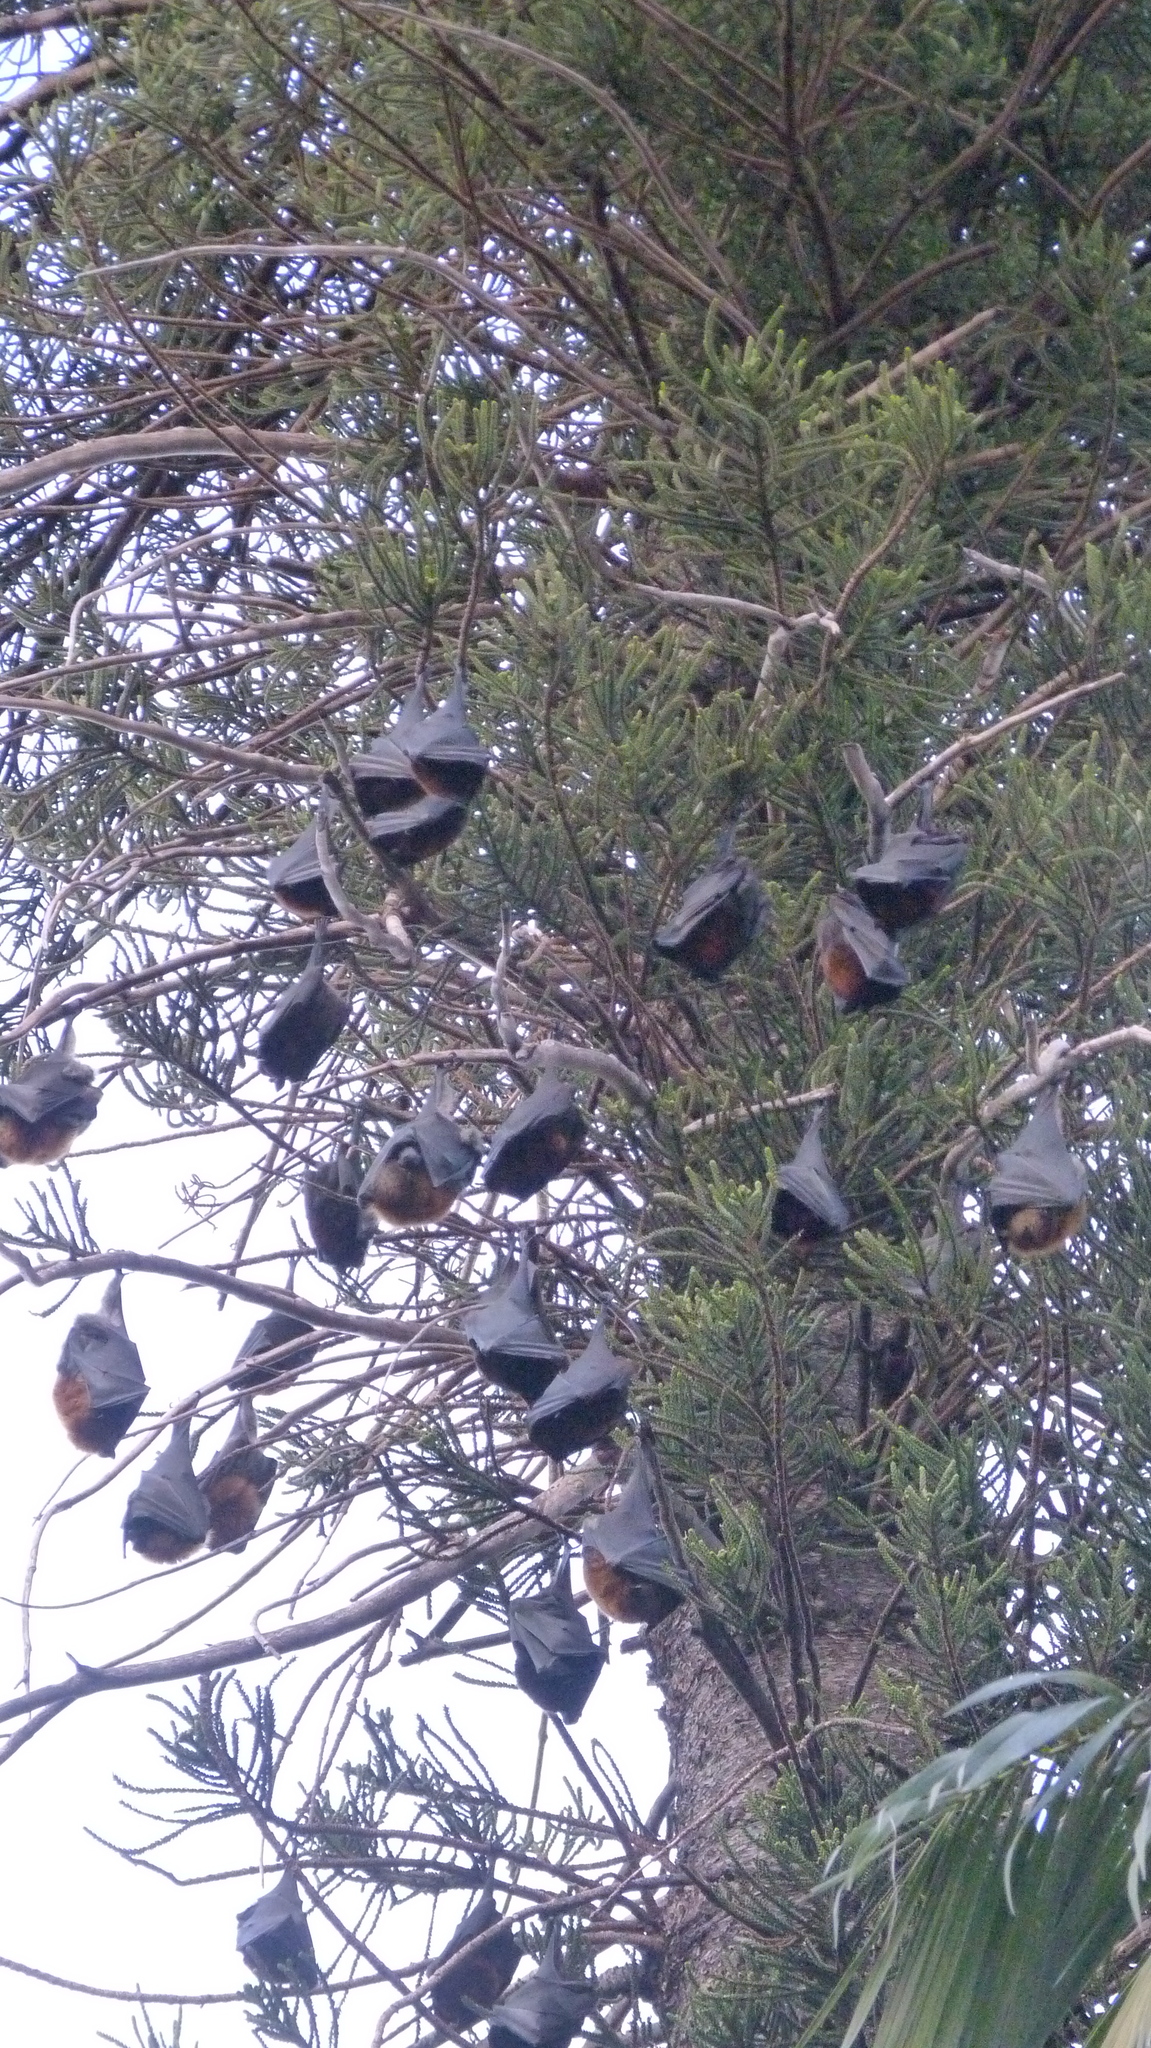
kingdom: Animalia
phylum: Chordata
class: Mammalia
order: Chiroptera
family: Pteropodidae
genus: Pteropus
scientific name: Pteropus poliocephalus
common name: Gray-headed flying fox
